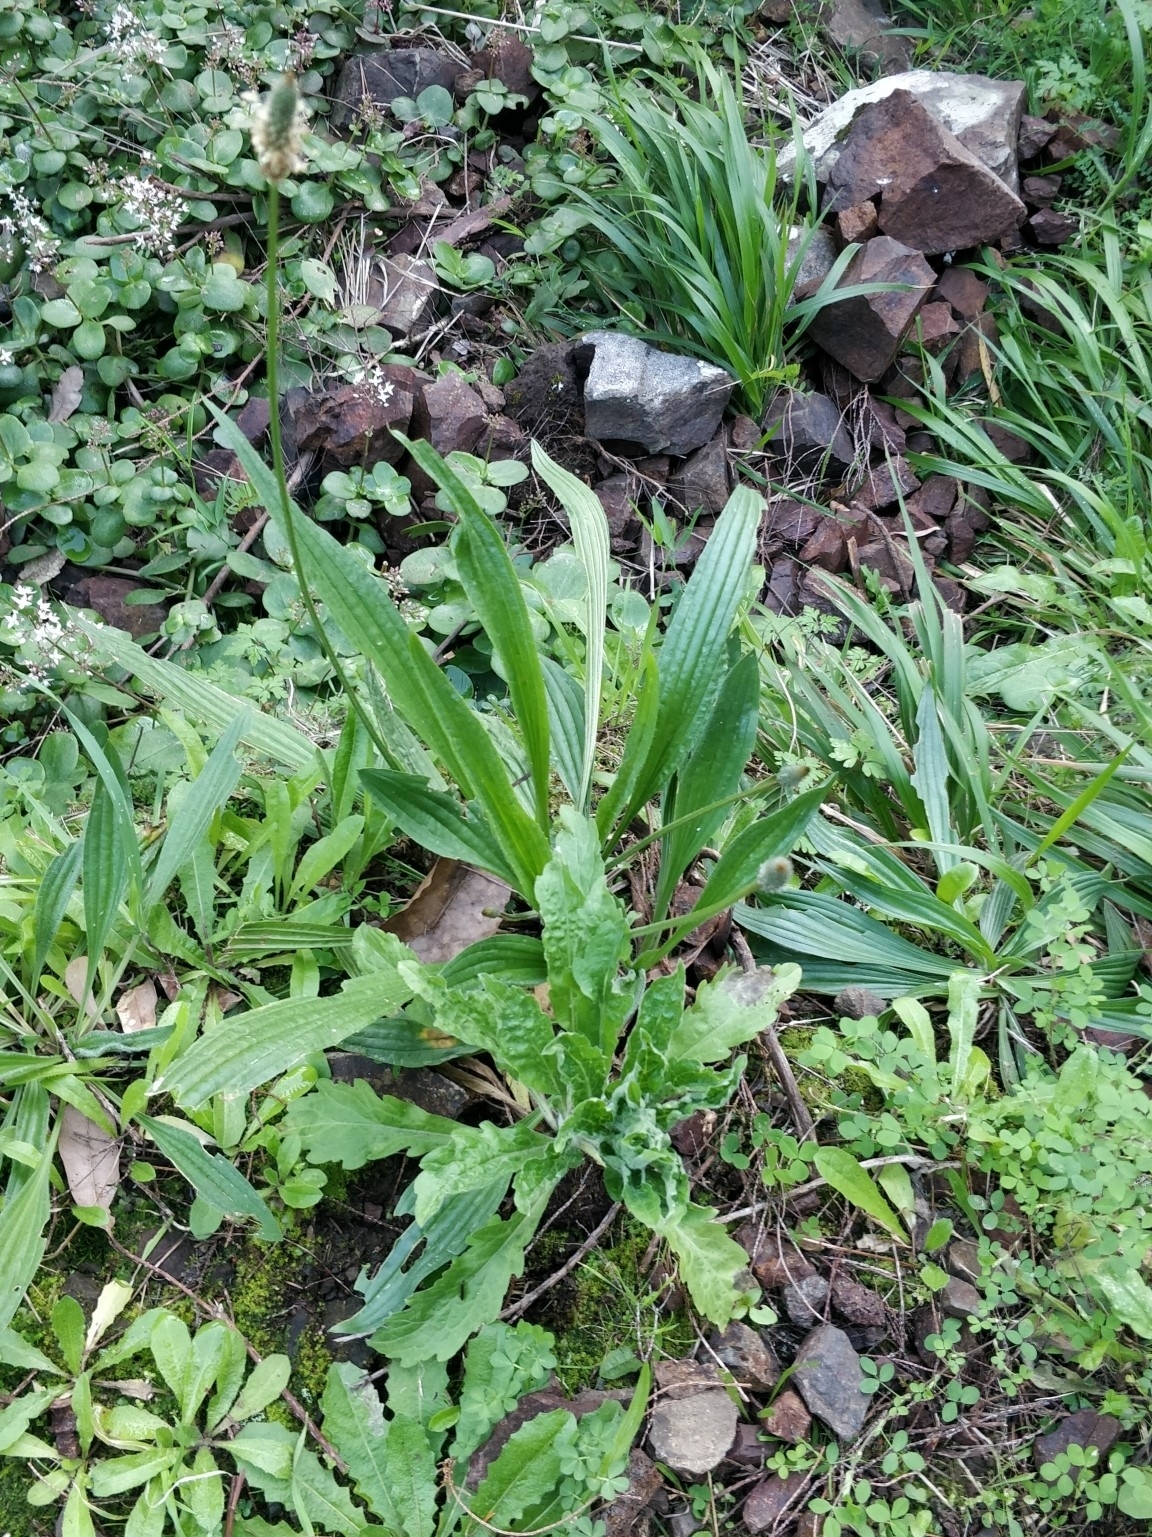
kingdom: Plantae
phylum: Tracheophyta
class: Magnoliopsida
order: Lamiales
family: Plantaginaceae
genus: Plantago
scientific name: Plantago lanceolata
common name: Ribwort plantain
